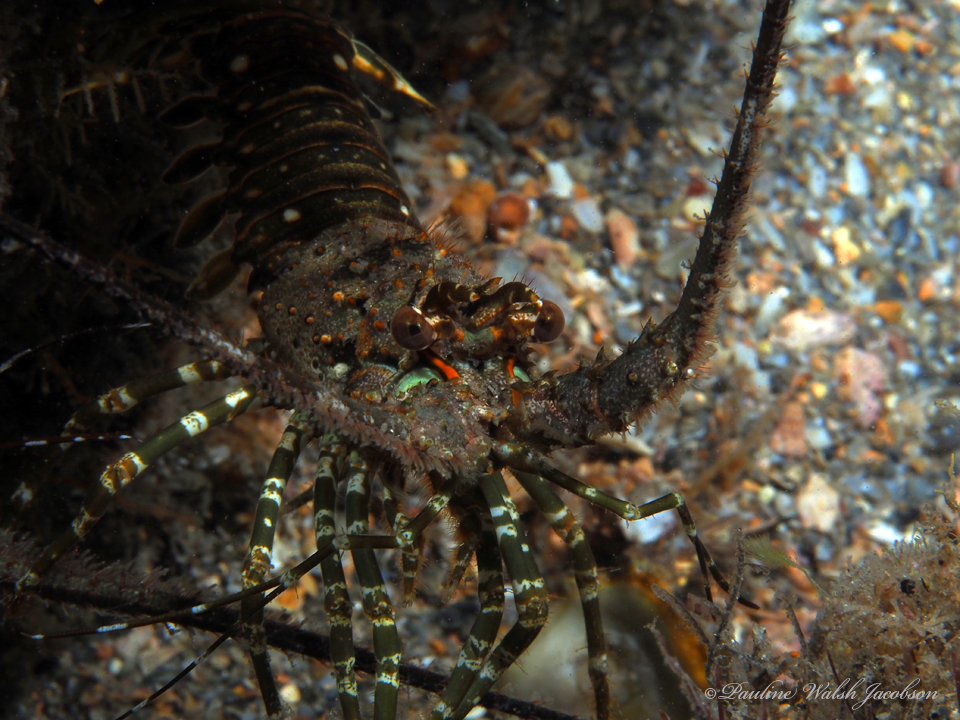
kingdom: Animalia
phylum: Arthropoda
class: Malacostraca
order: Decapoda
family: Palinuridae
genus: Panulirus
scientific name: Panulirus argus
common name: Caribbean spiny lobster
